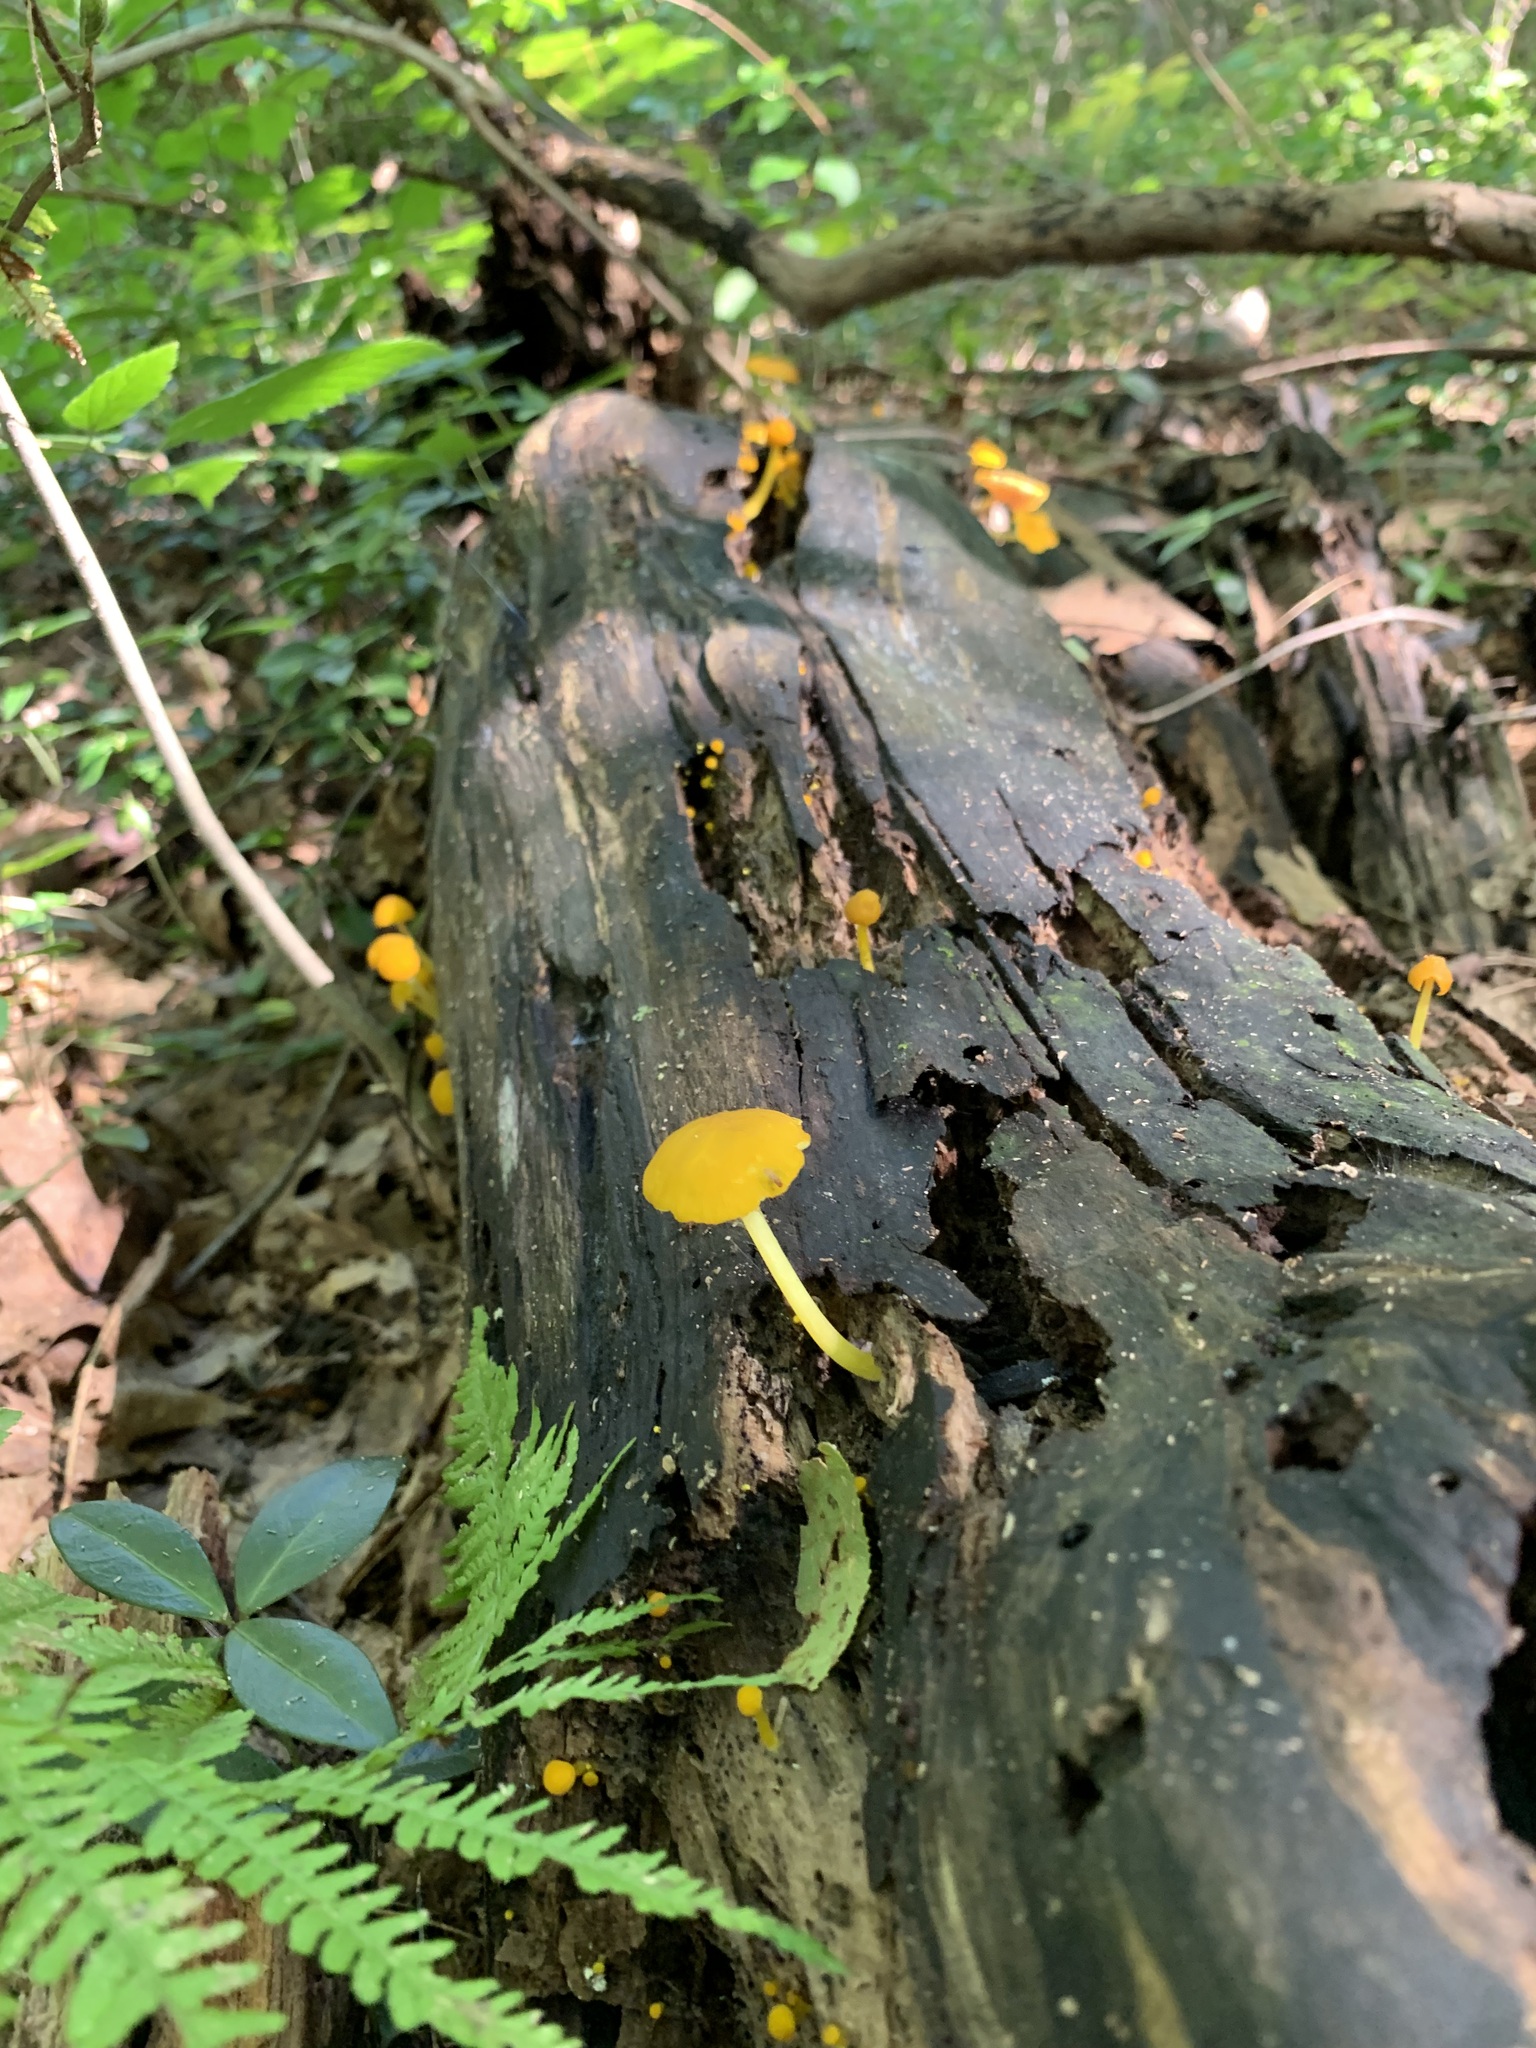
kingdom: Fungi
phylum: Basidiomycota
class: Agaricomycetes
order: Agaricales
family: Pluteaceae
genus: Pluteus
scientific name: Pluteus chrysophlebius
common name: Yellow deer mushroom
